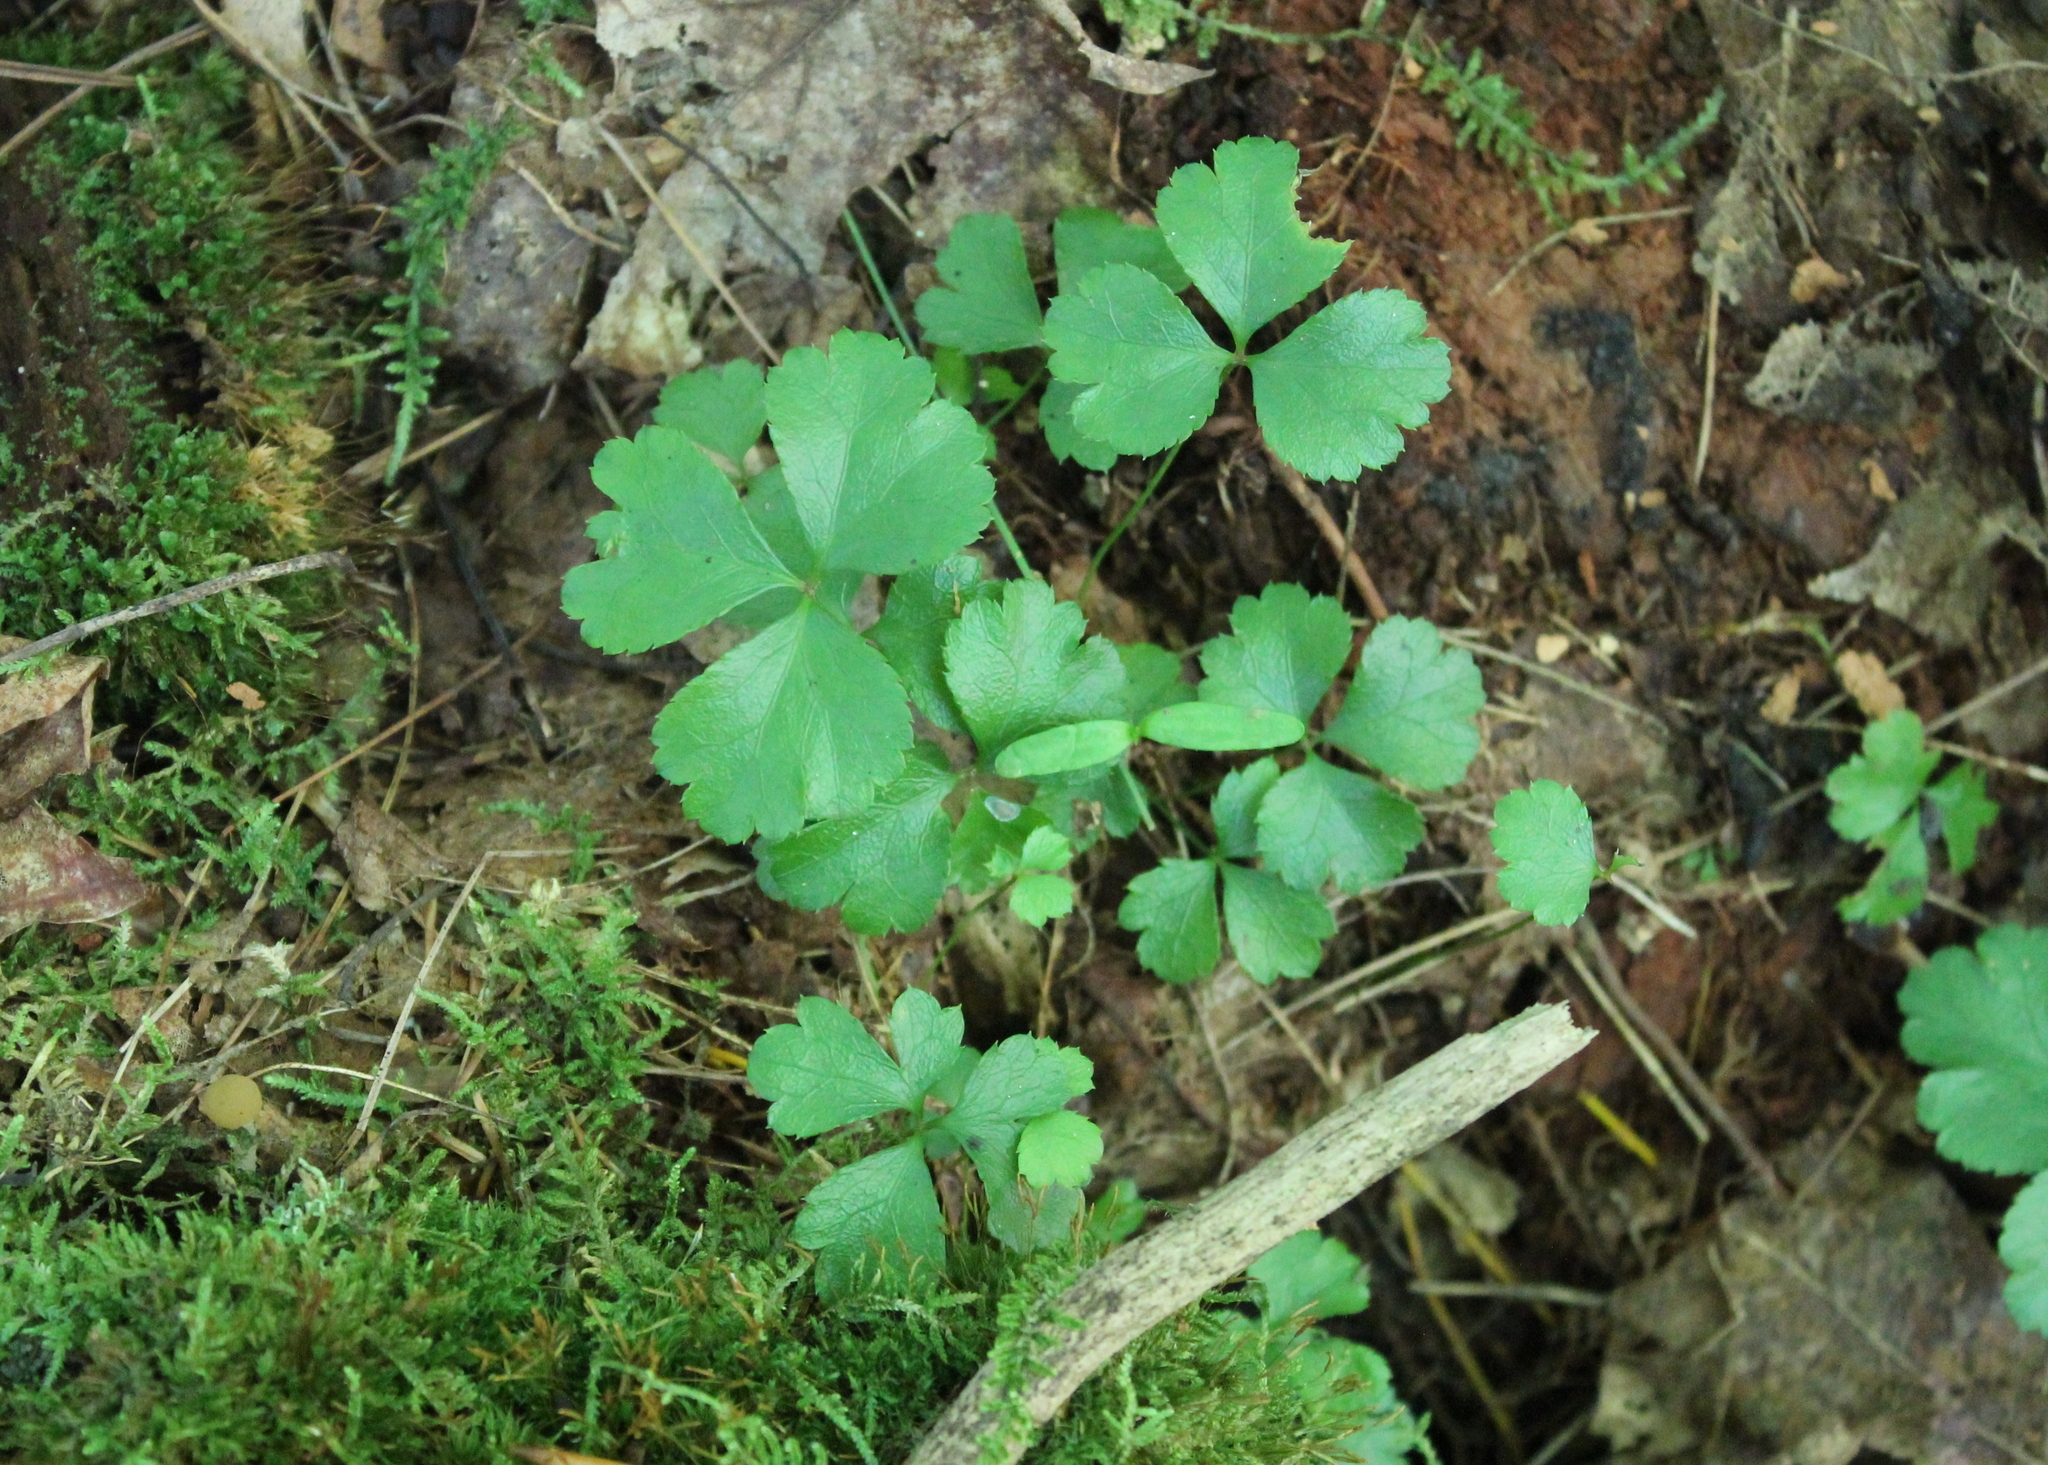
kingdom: Plantae
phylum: Tracheophyta
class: Magnoliopsida
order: Ranunculales
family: Ranunculaceae
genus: Coptis
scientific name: Coptis trifolia
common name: Canker-root
